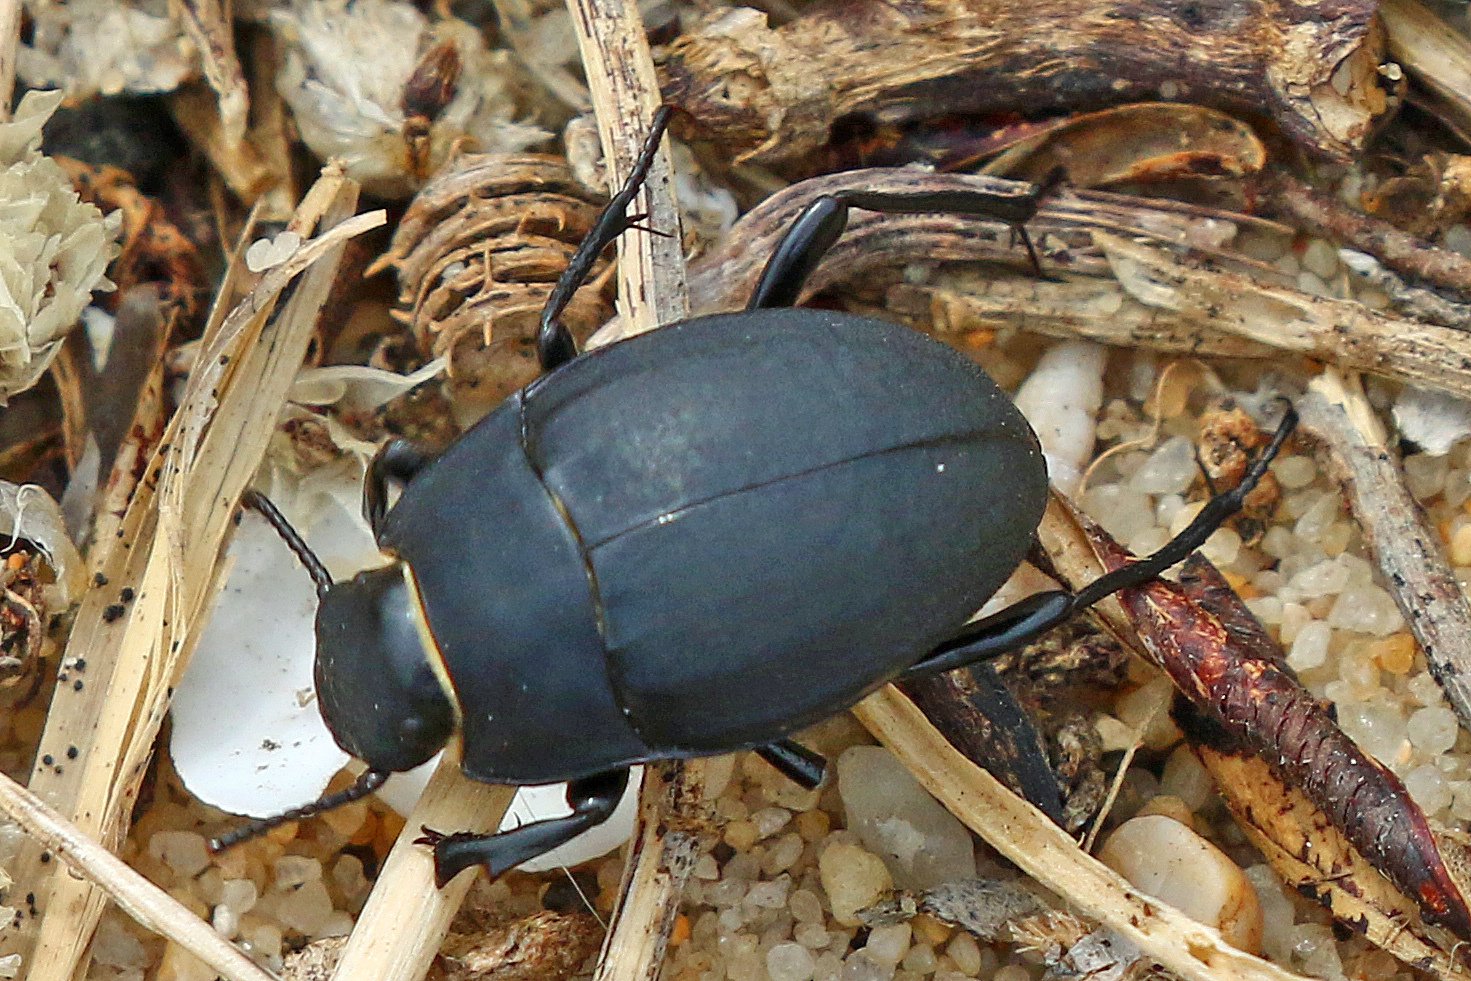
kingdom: Animalia
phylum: Arthropoda
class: Insecta
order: Coleoptera
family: Tenebrionidae
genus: Erodius
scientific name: Erodius tibialis
